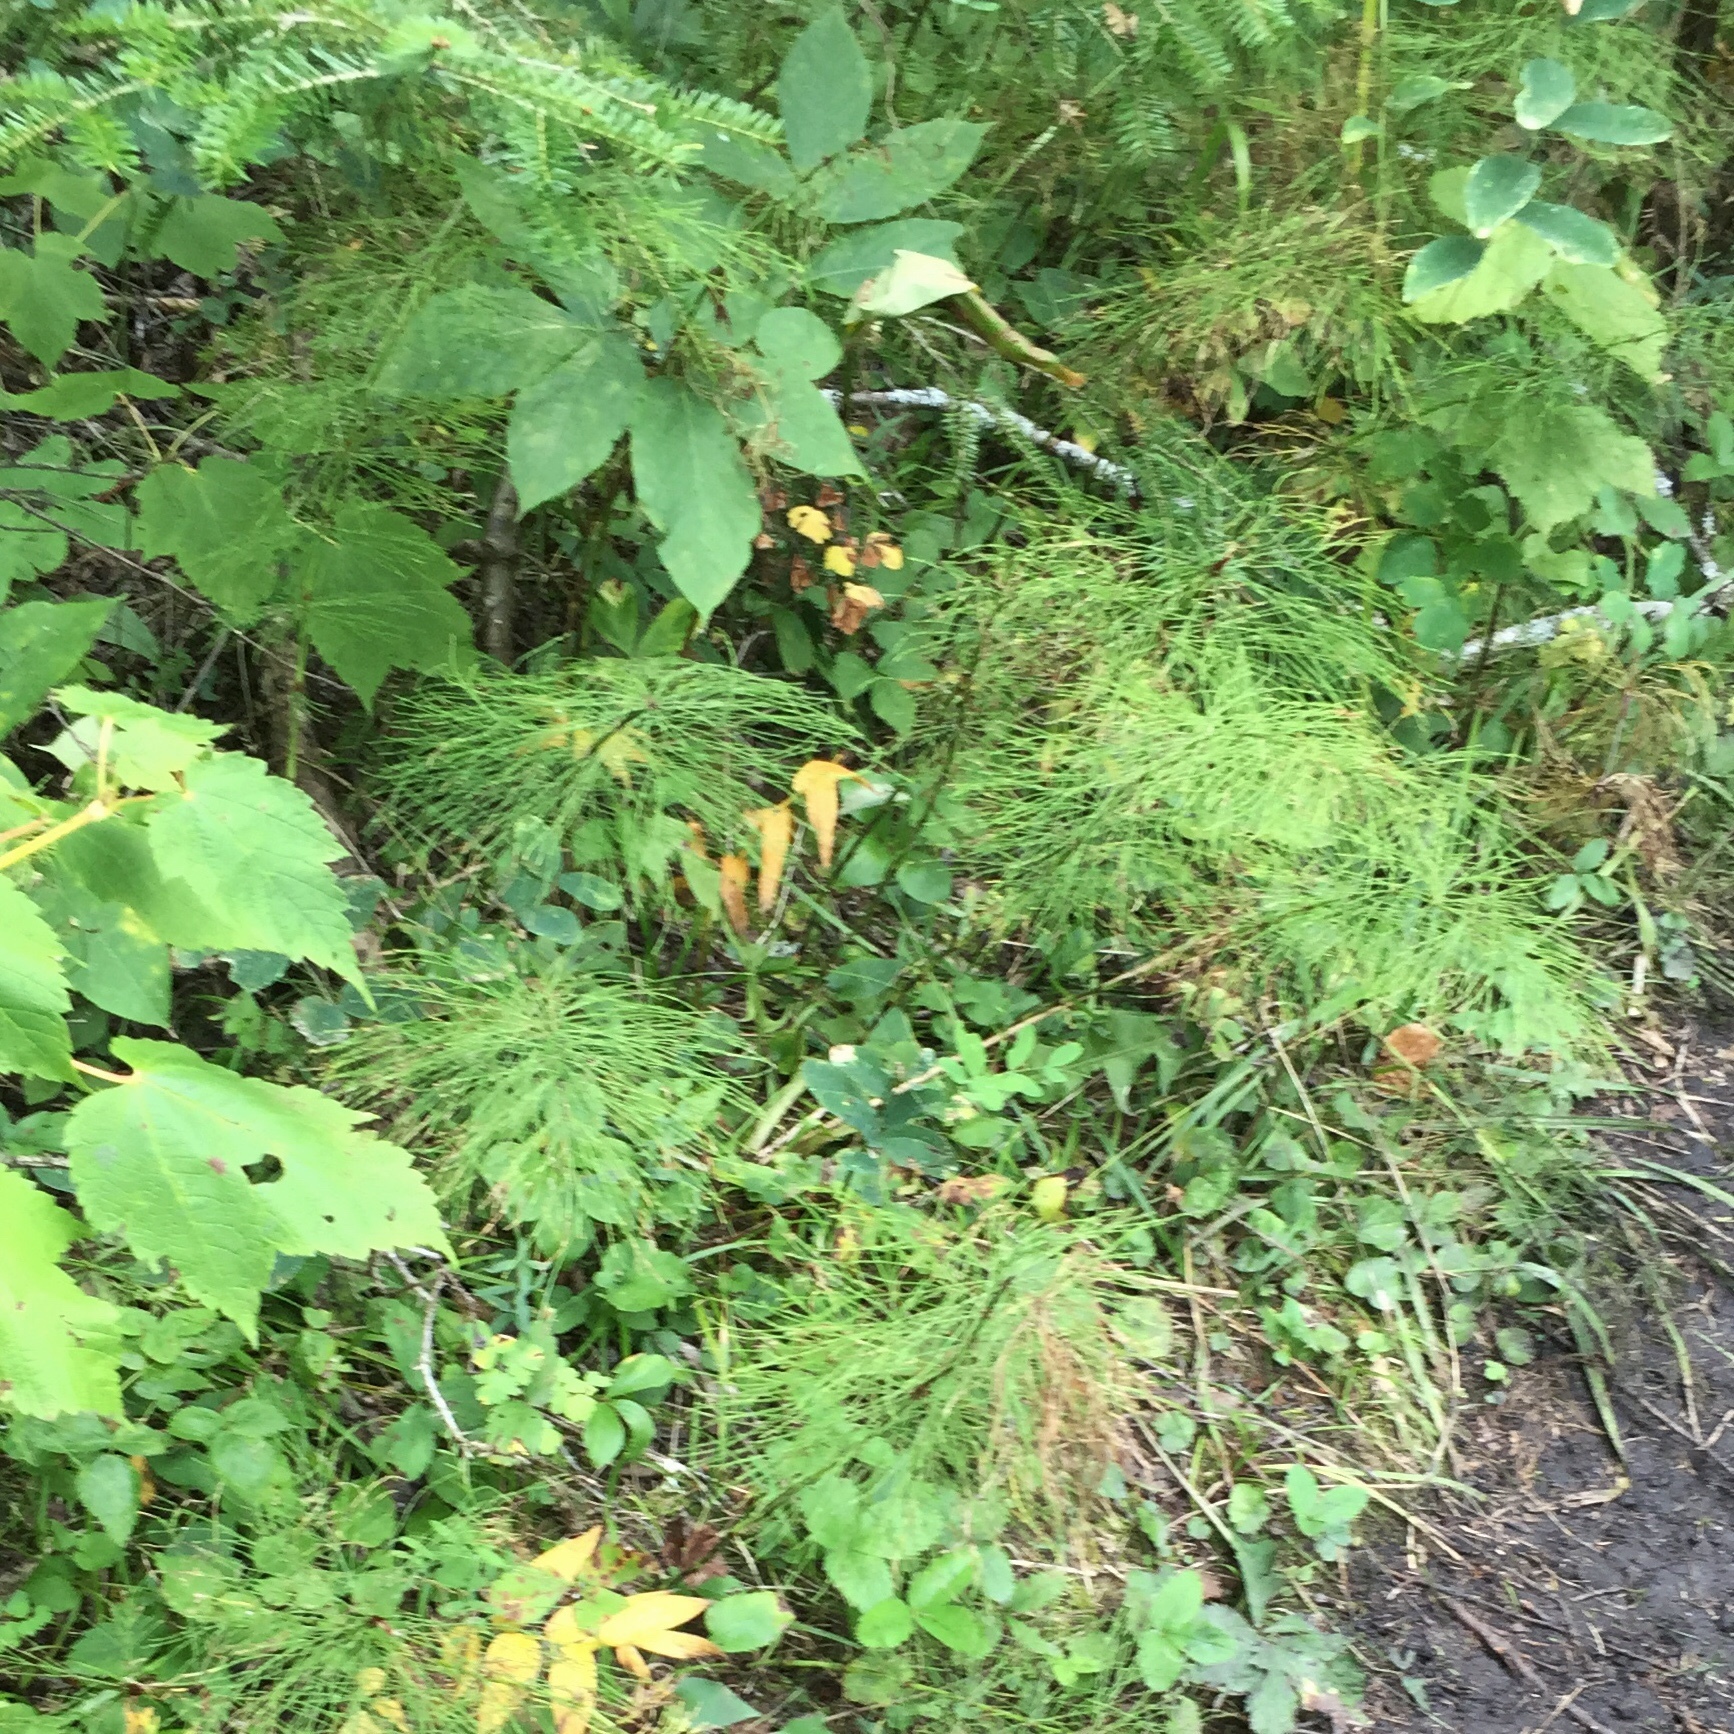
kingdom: Plantae
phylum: Tracheophyta
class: Polypodiopsida
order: Equisetales
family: Equisetaceae
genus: Equisetum
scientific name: Equisetum sylvaticum
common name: Wood horsetail
